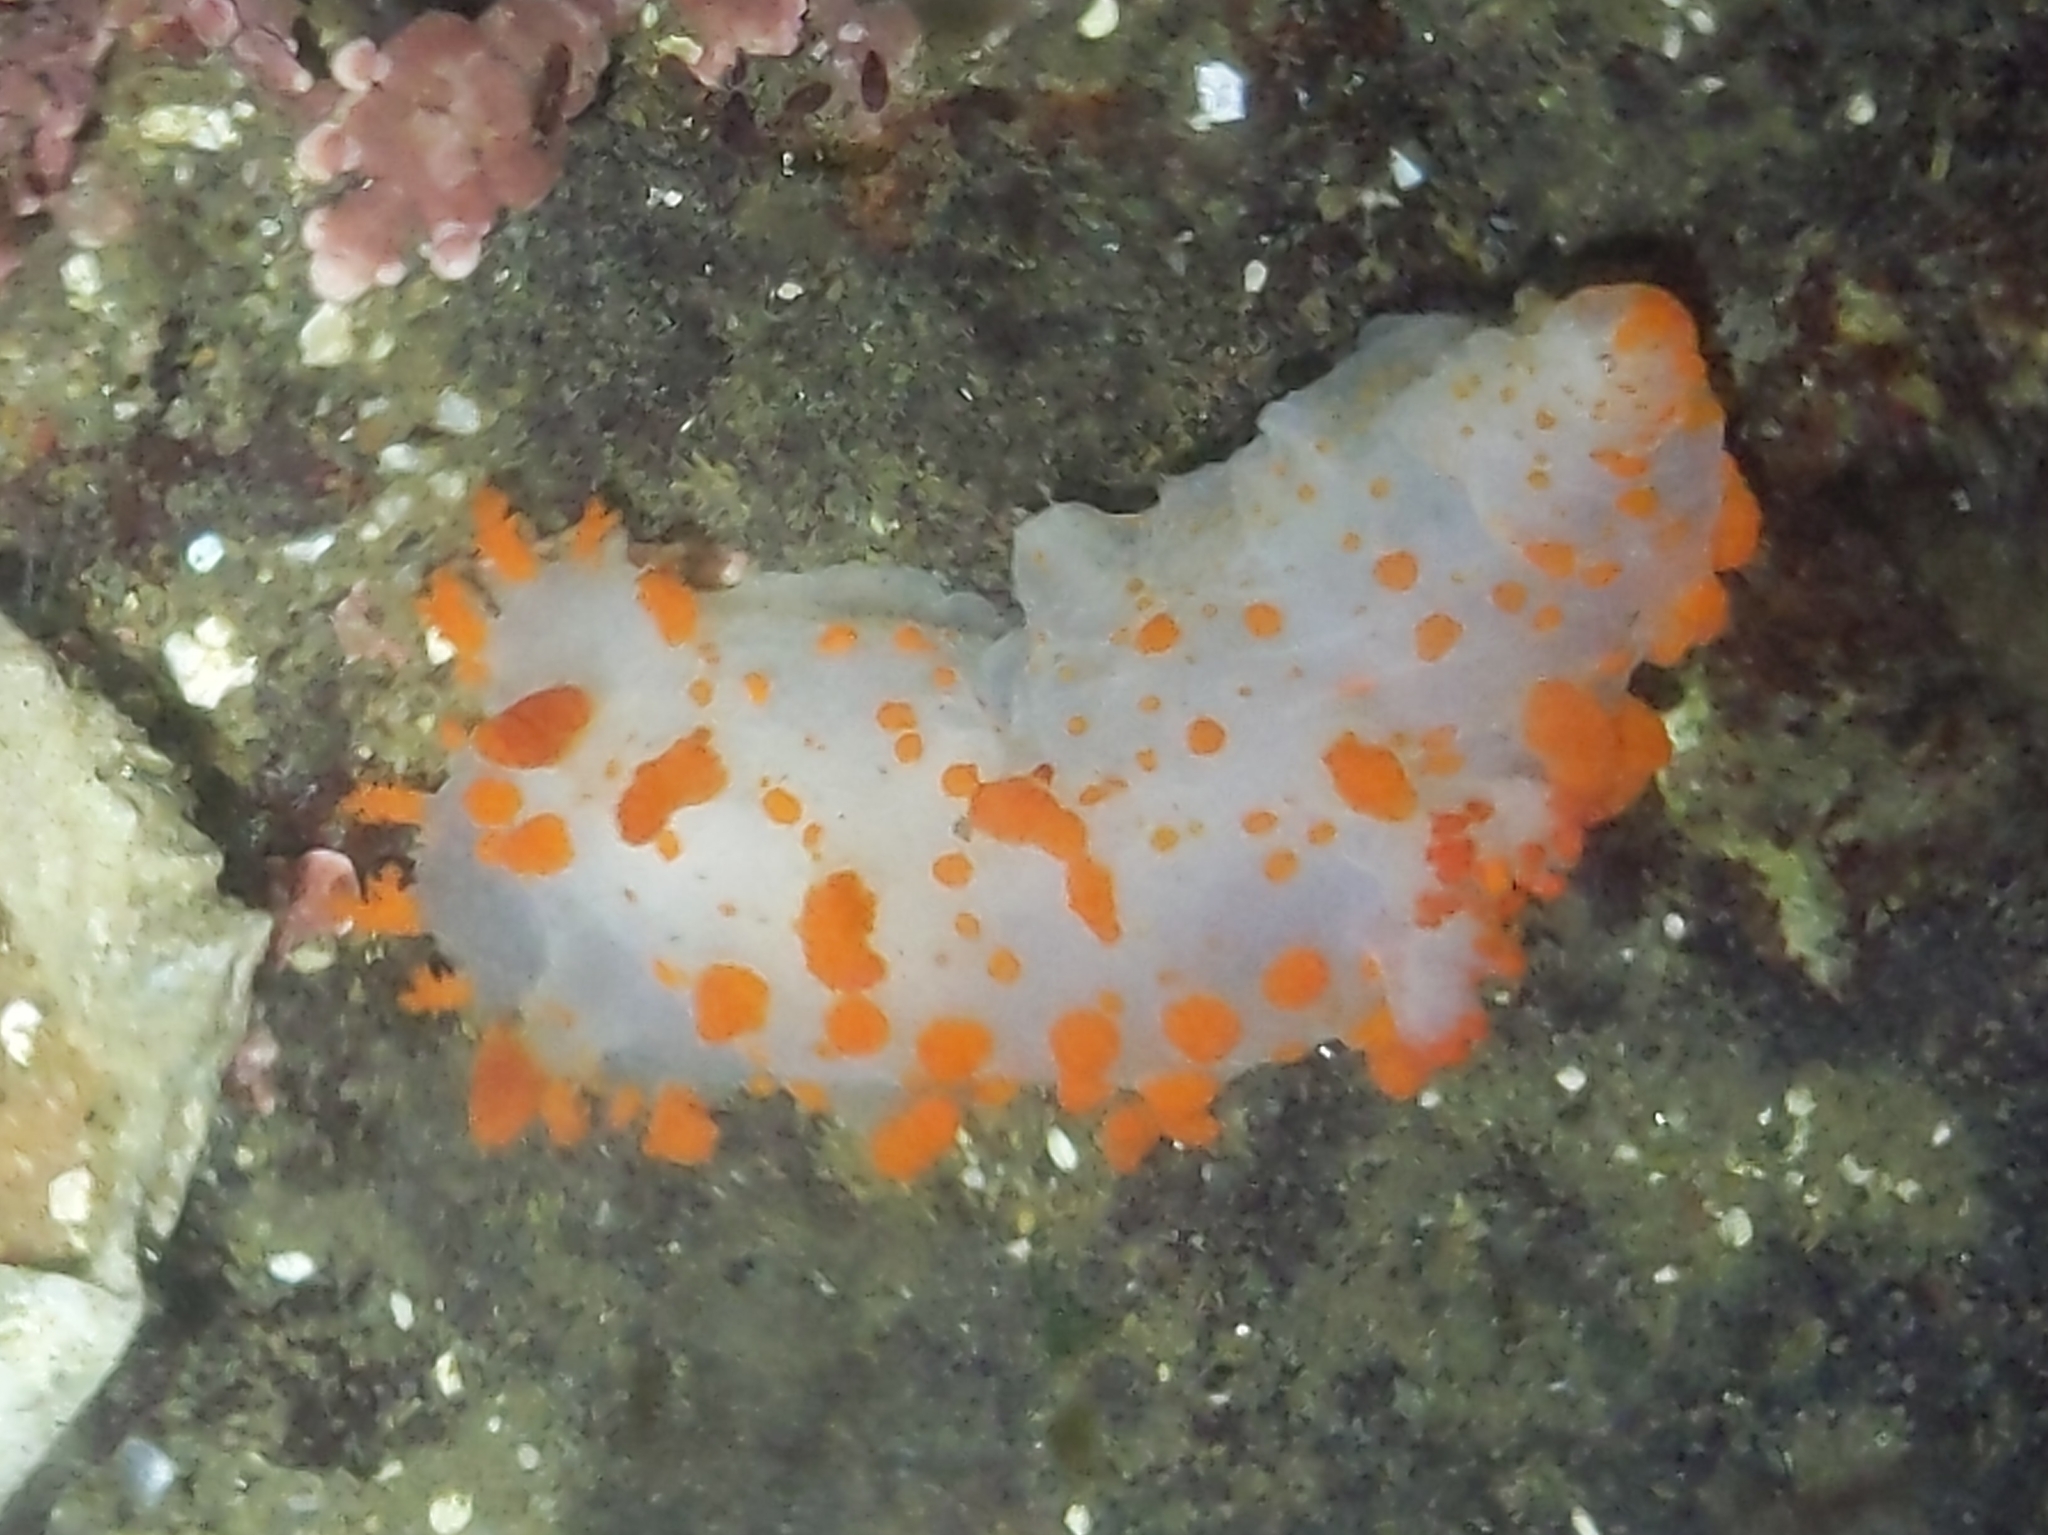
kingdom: Animalia
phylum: Mollusca
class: Gastropoda
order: Nudibranchia
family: Polyceridae
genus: Triopha
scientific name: Triopha catalinae
